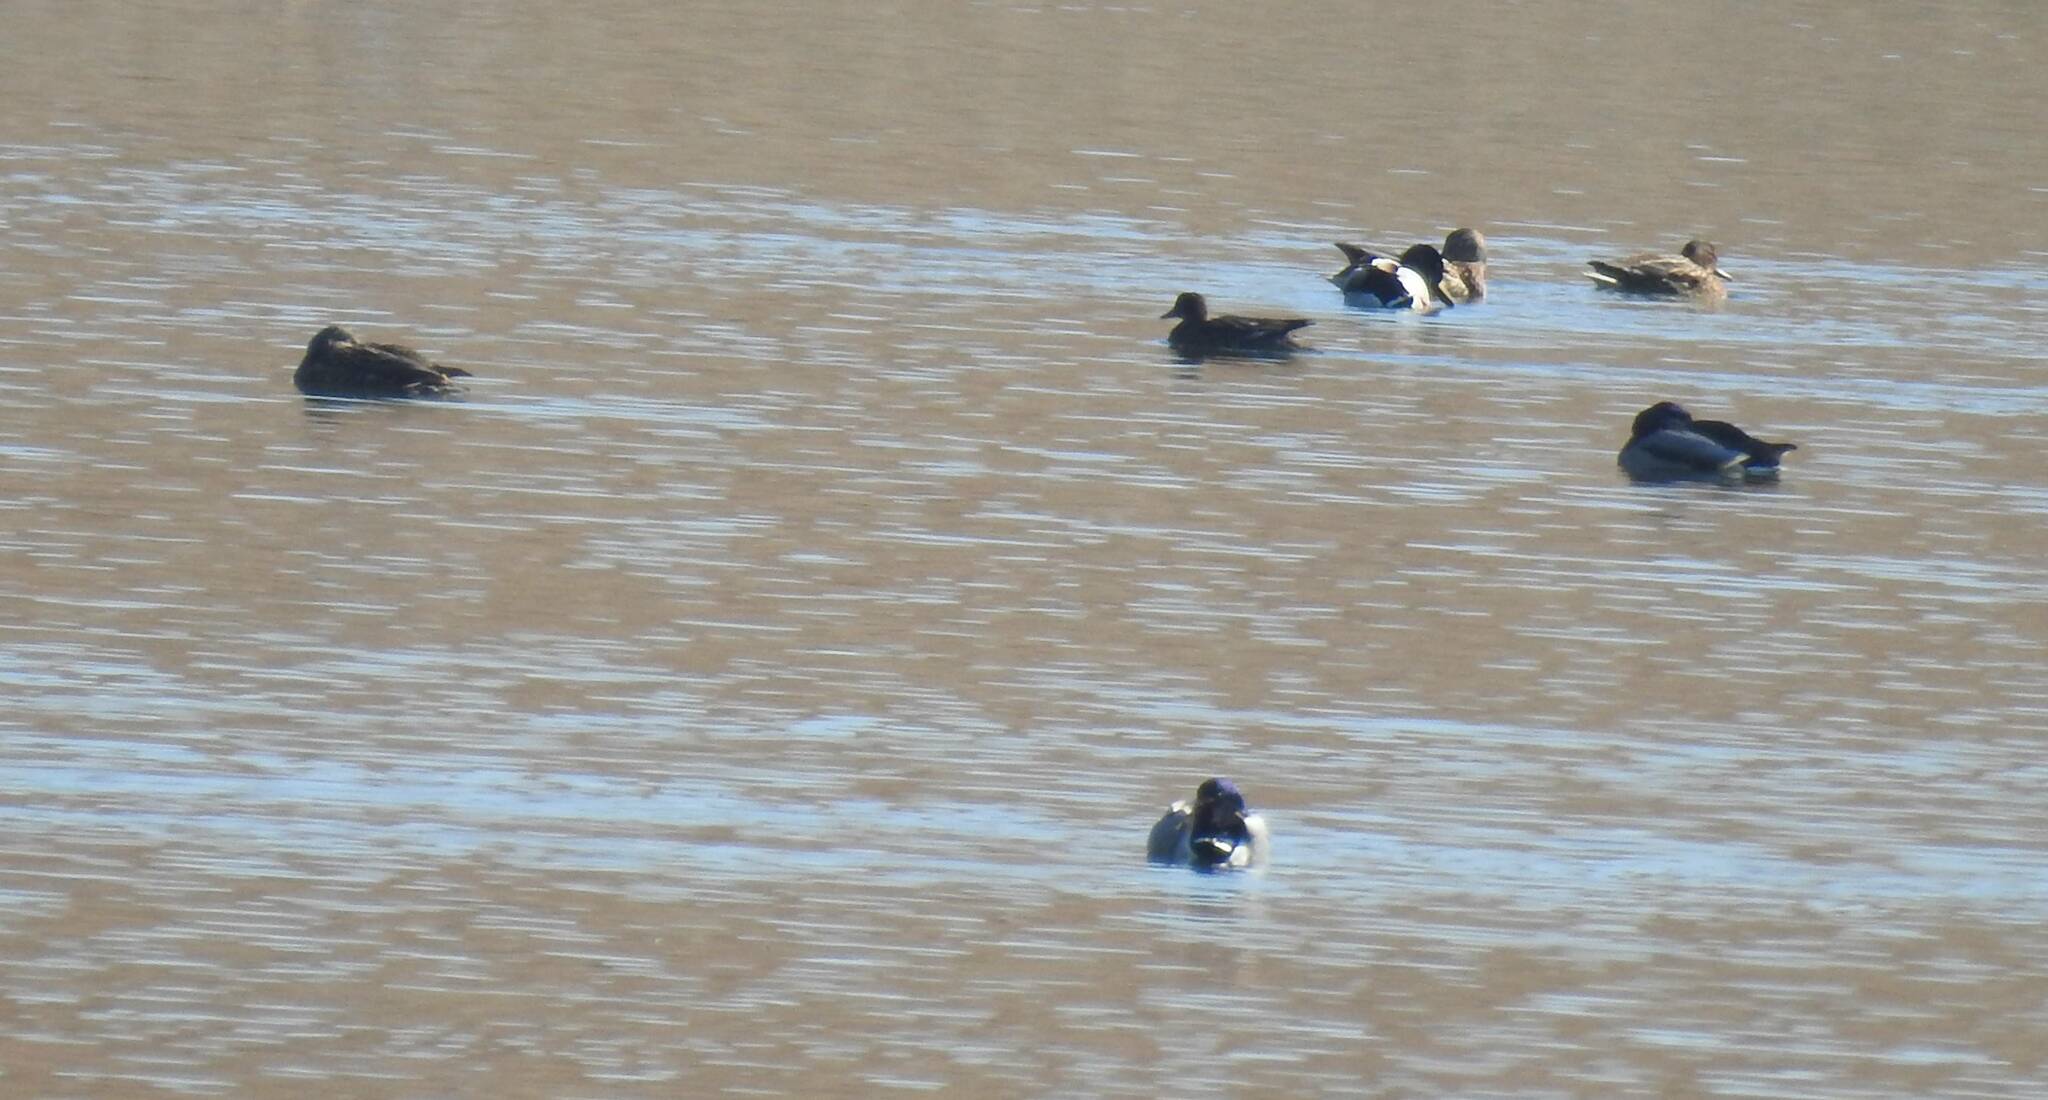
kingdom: Animalia
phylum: Chordata
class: Aves
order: Anseriformes
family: Anatidae
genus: Anas
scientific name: Anas platyrhynchos
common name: Mallard
